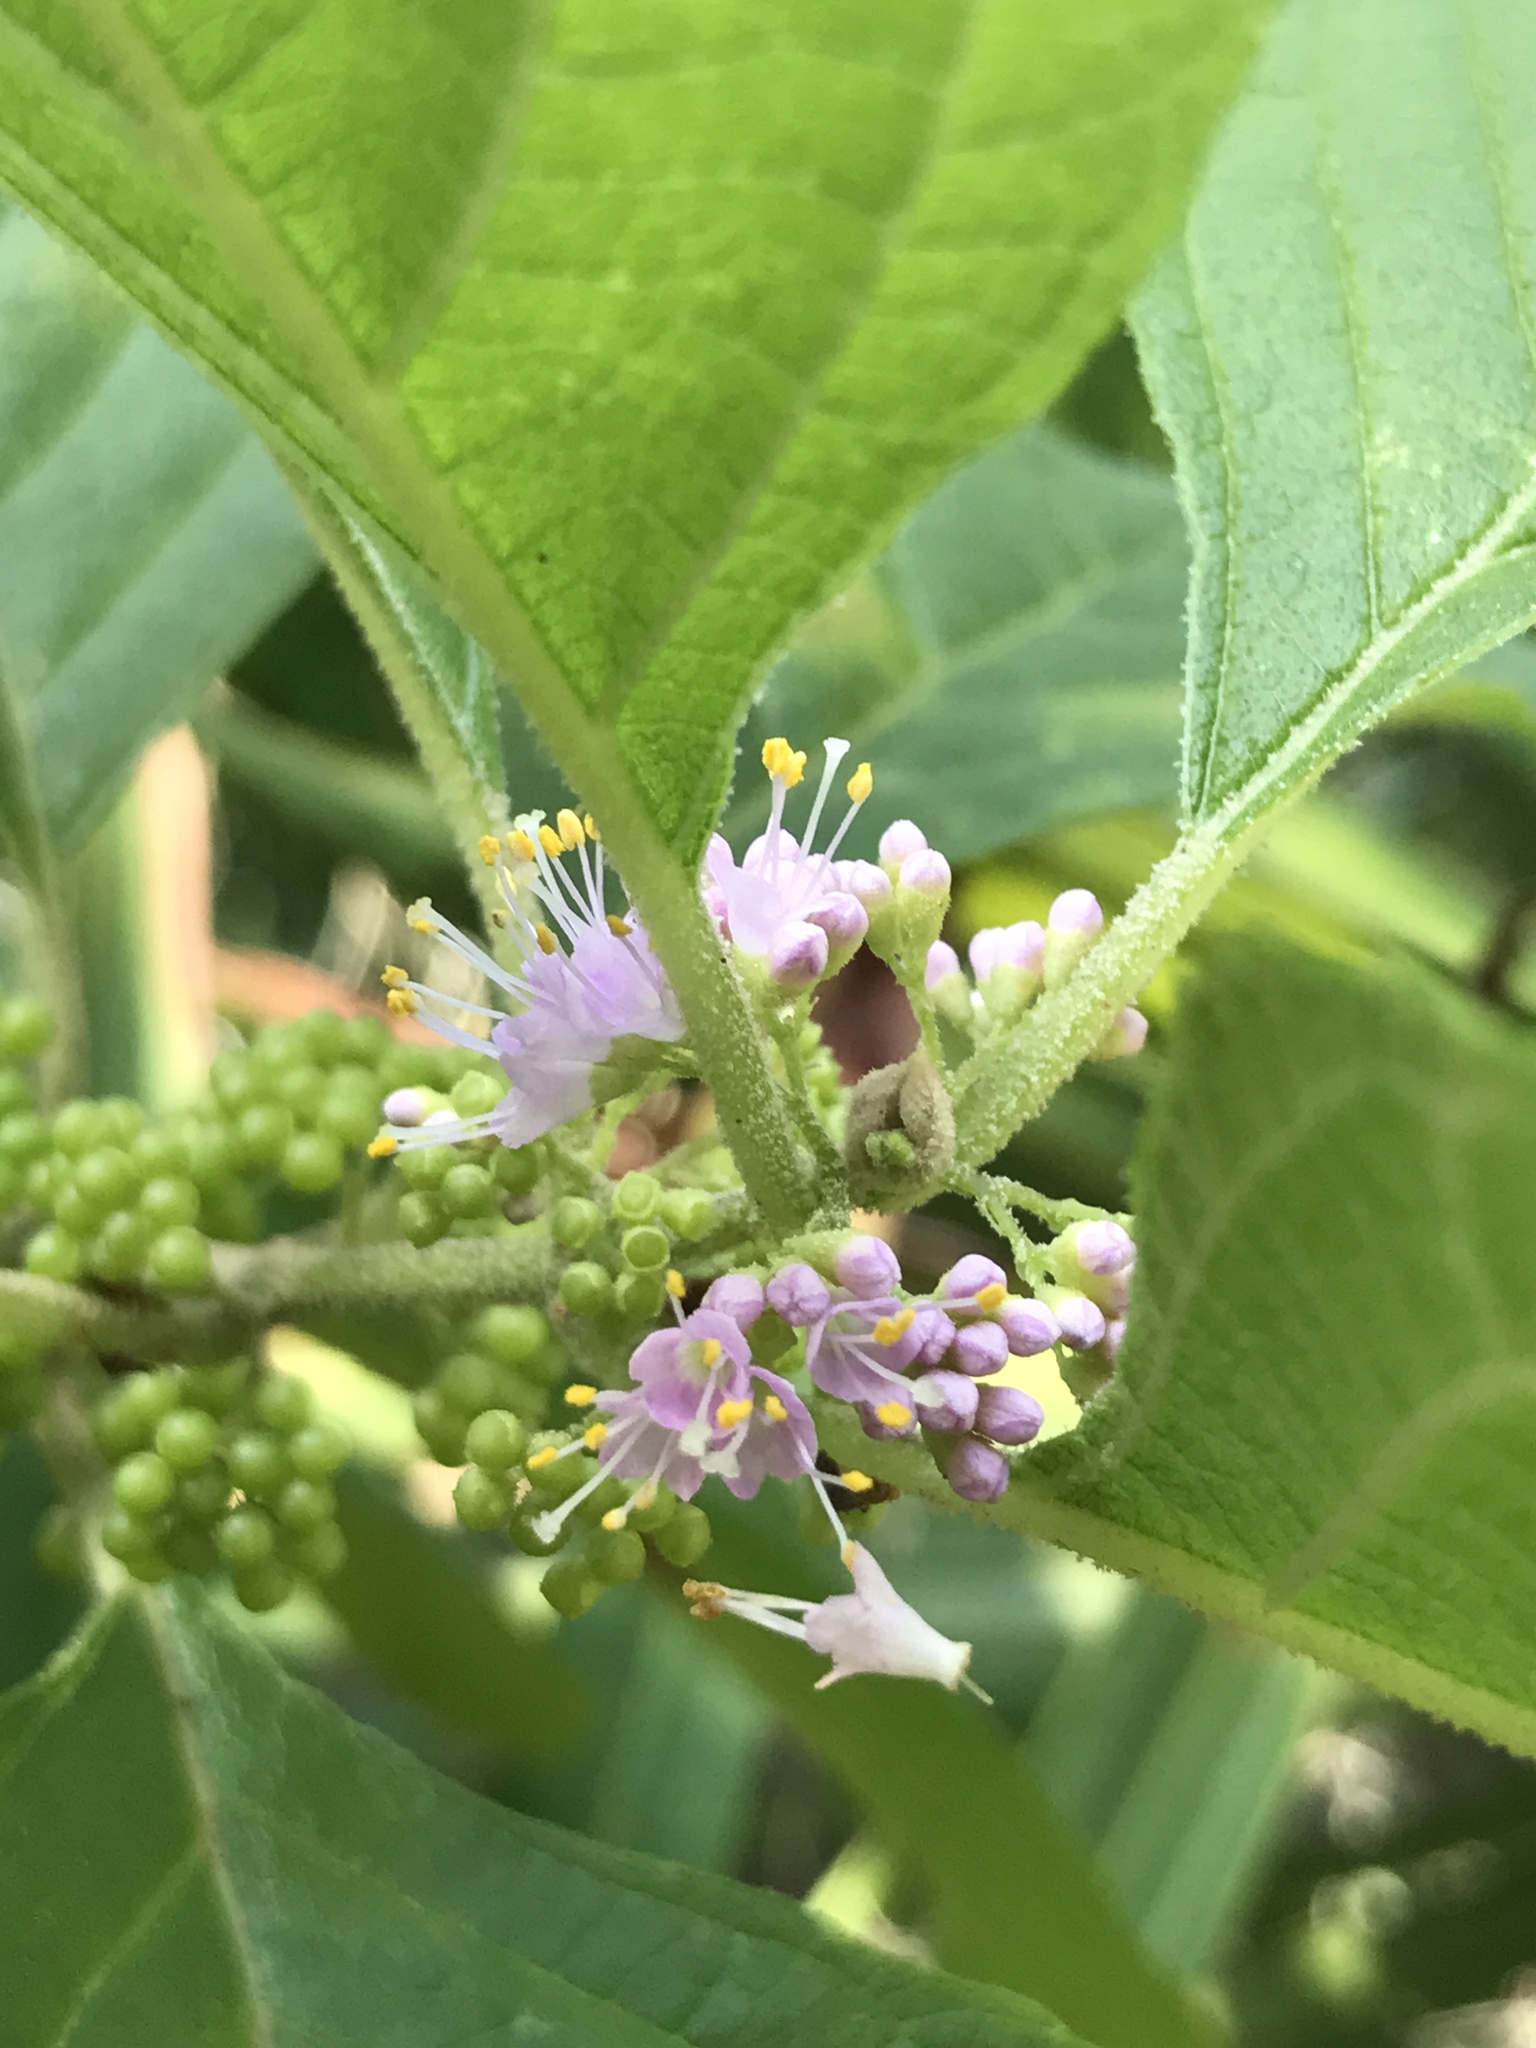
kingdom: Plantae
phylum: Tracheophyta
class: Magnoliopsida
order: Lamiales
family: Lamiaceae
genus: Callicarpa
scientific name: Callicarpa americana
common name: American beautyberry
